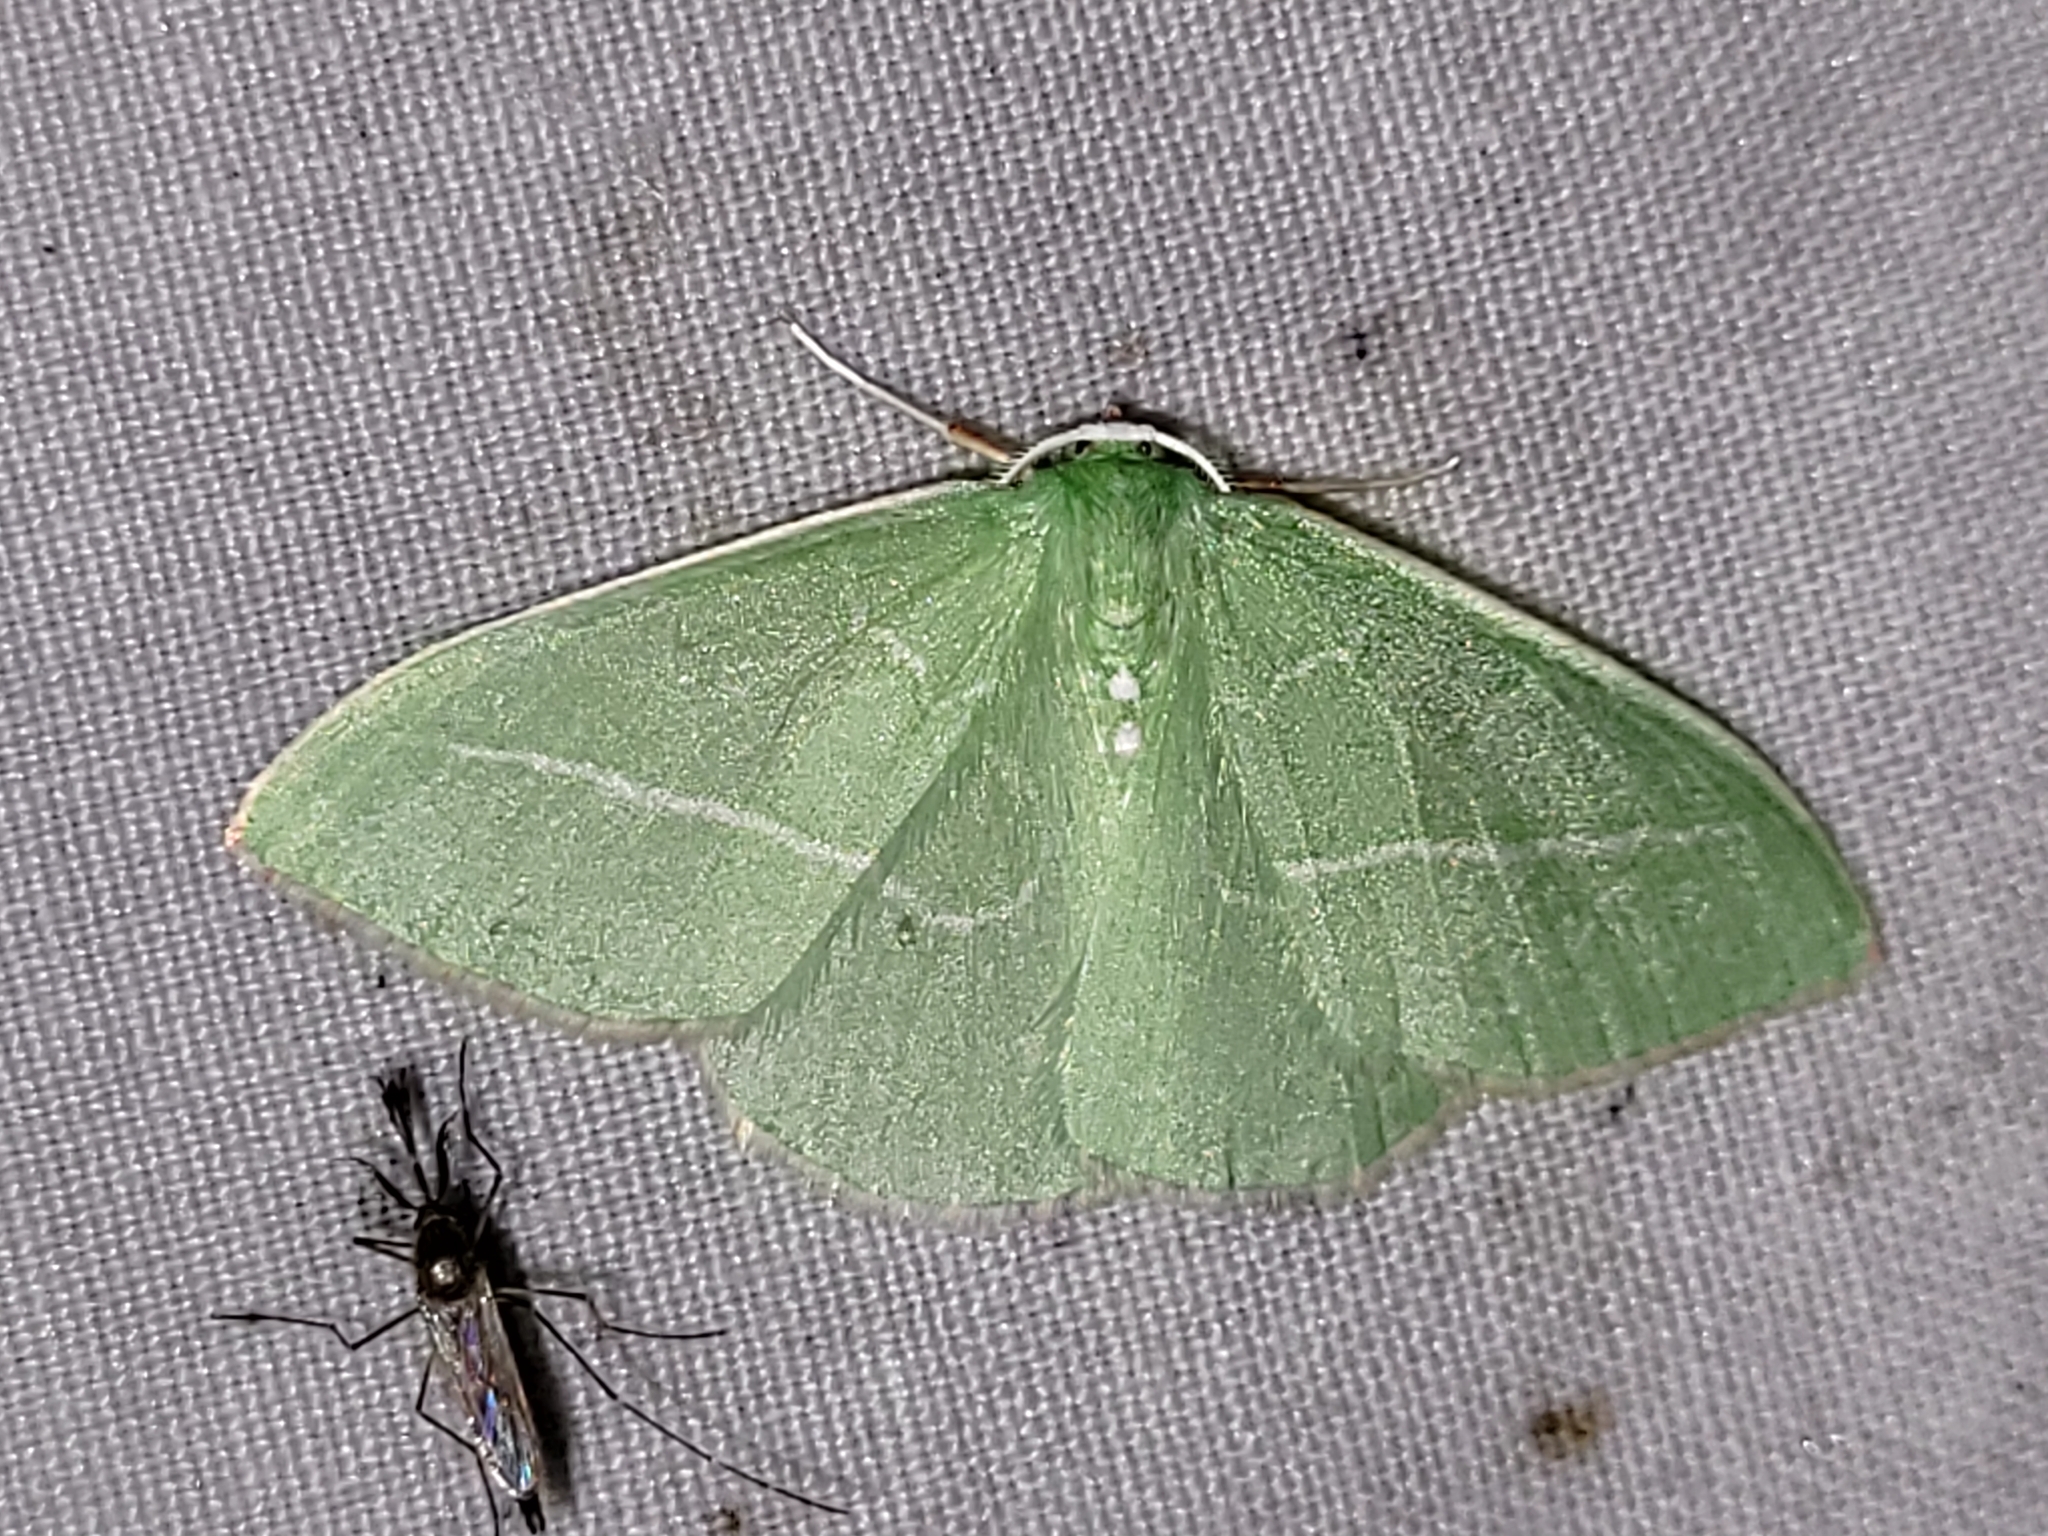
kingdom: Animalia
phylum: Arthropoda
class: Insecta
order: Lepidoptera
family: Geometridae
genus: Nemoria
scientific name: Nemoria unitaria
